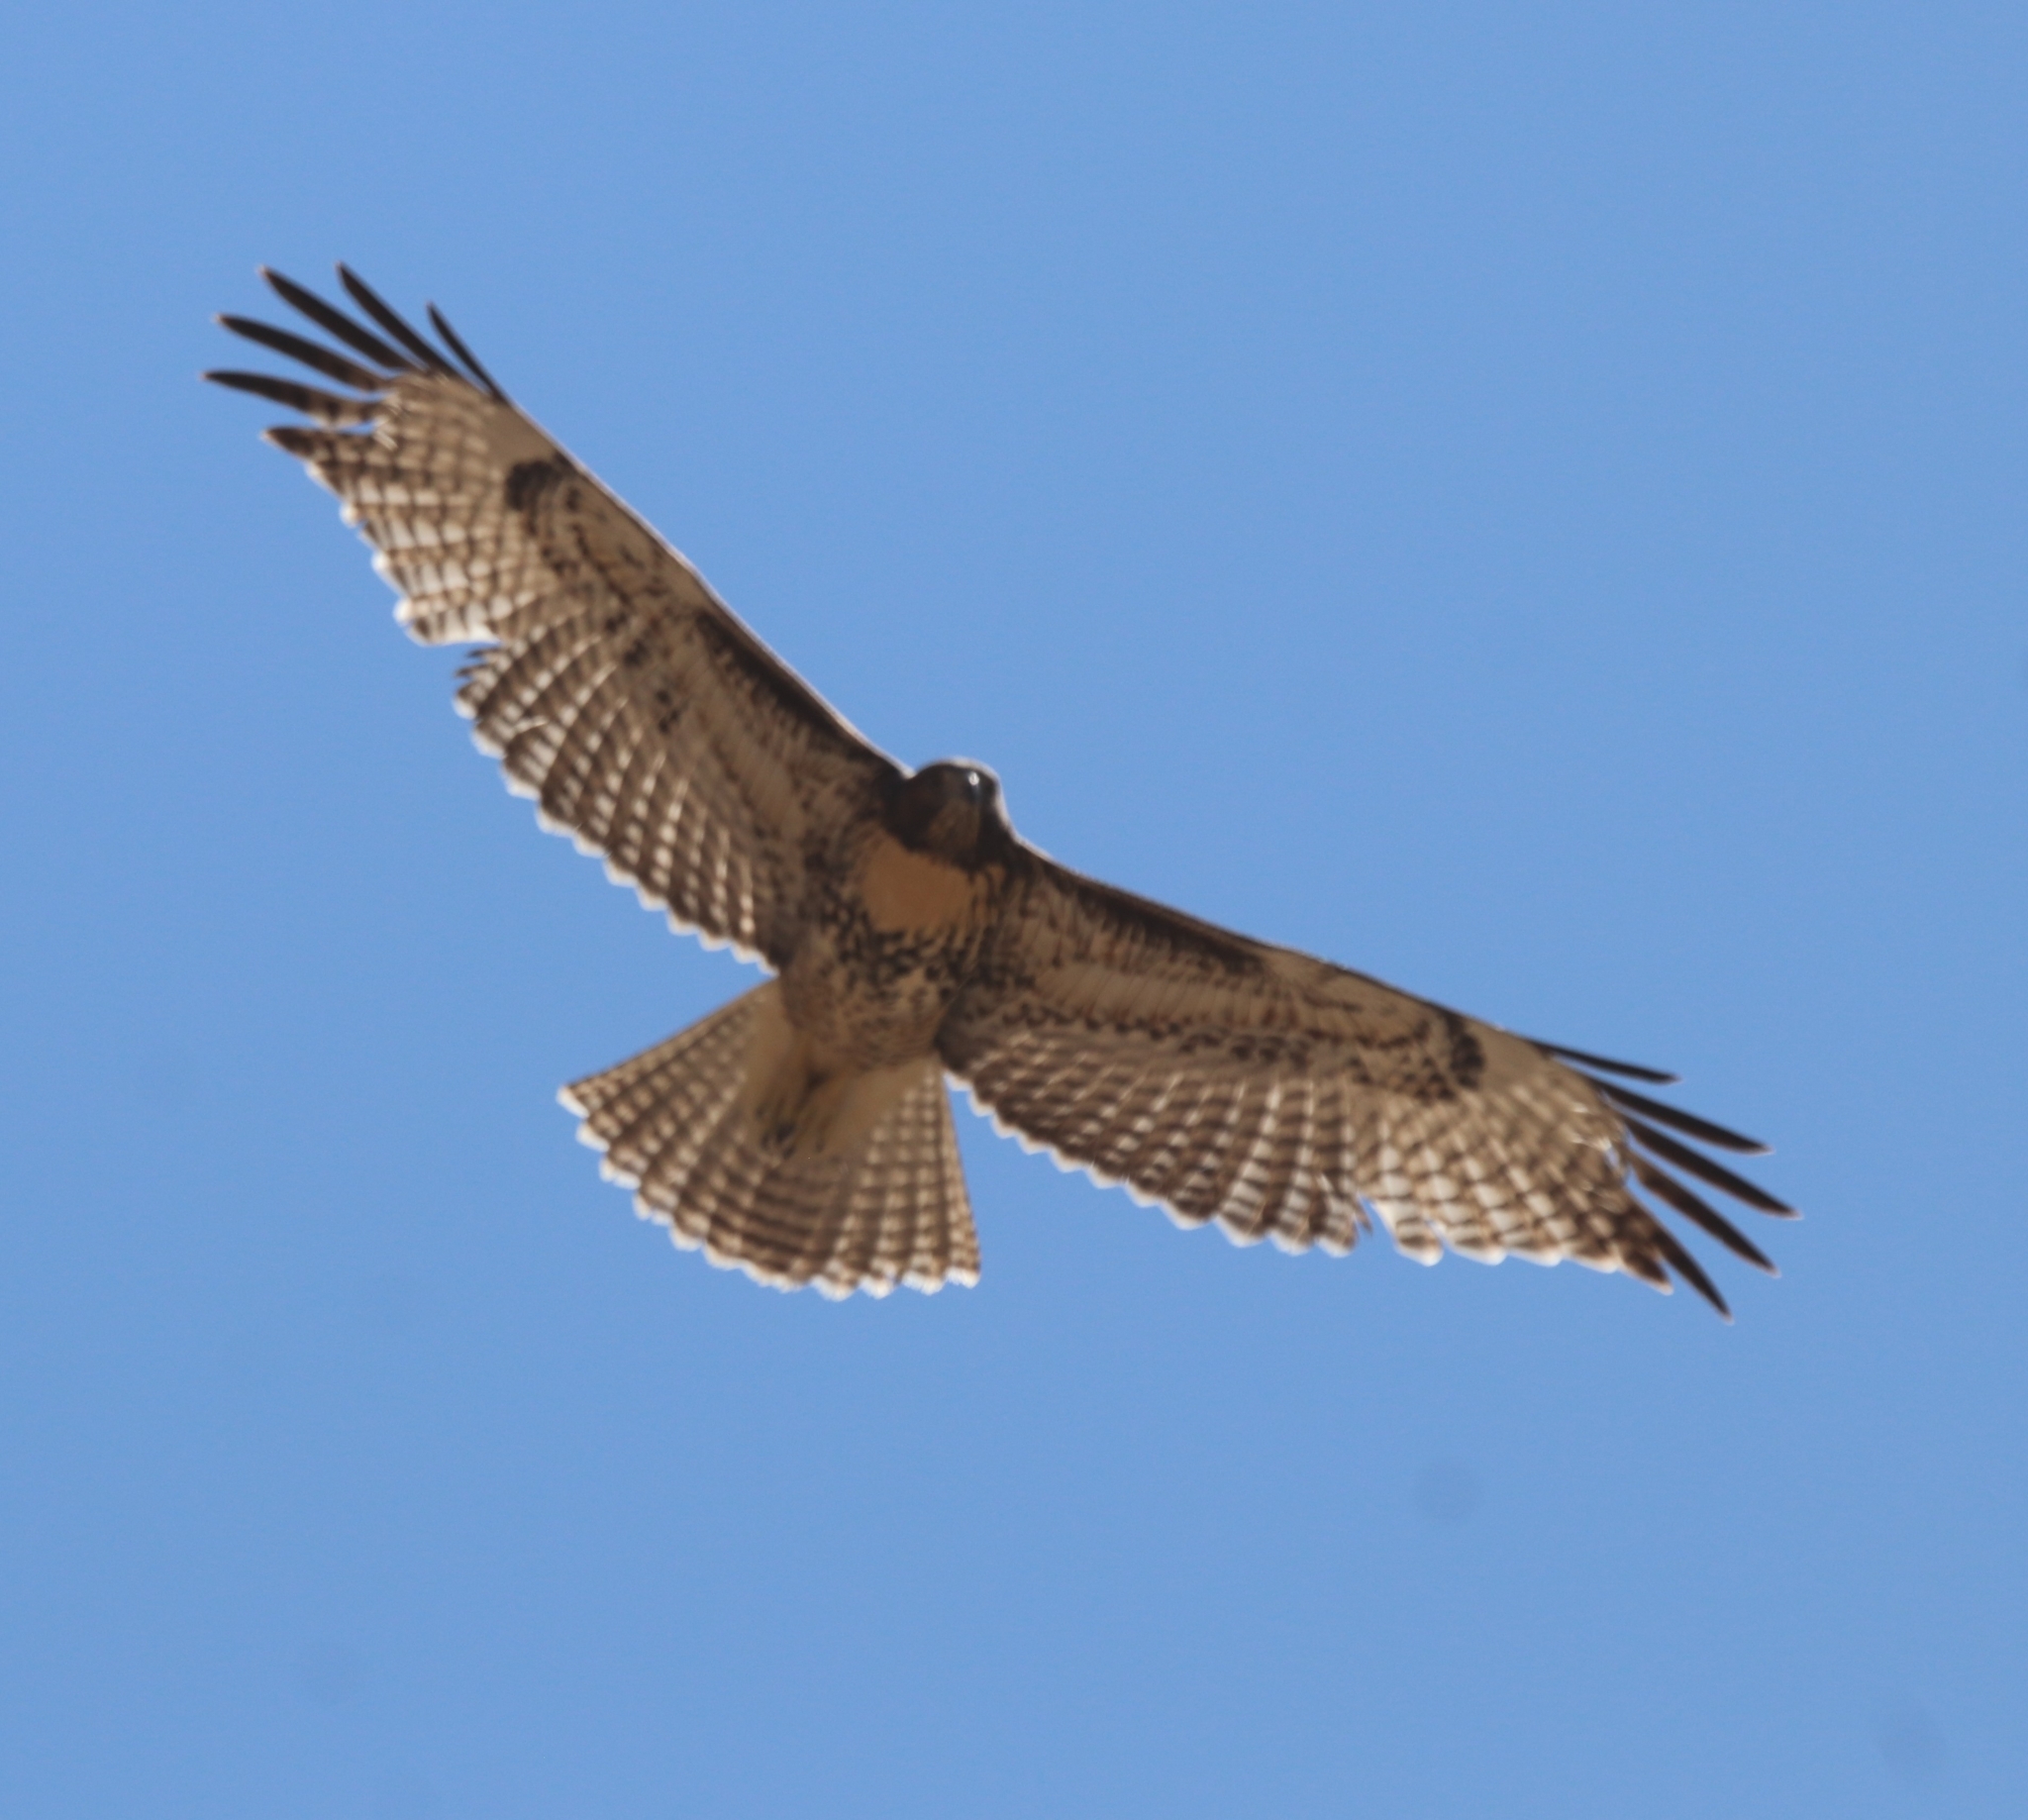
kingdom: Animalia
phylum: Chordata
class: Aves
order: Accipitriformes
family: Accipitridae
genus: Buteo
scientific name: Buteo jamaicensis
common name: Red-tailed hawk
